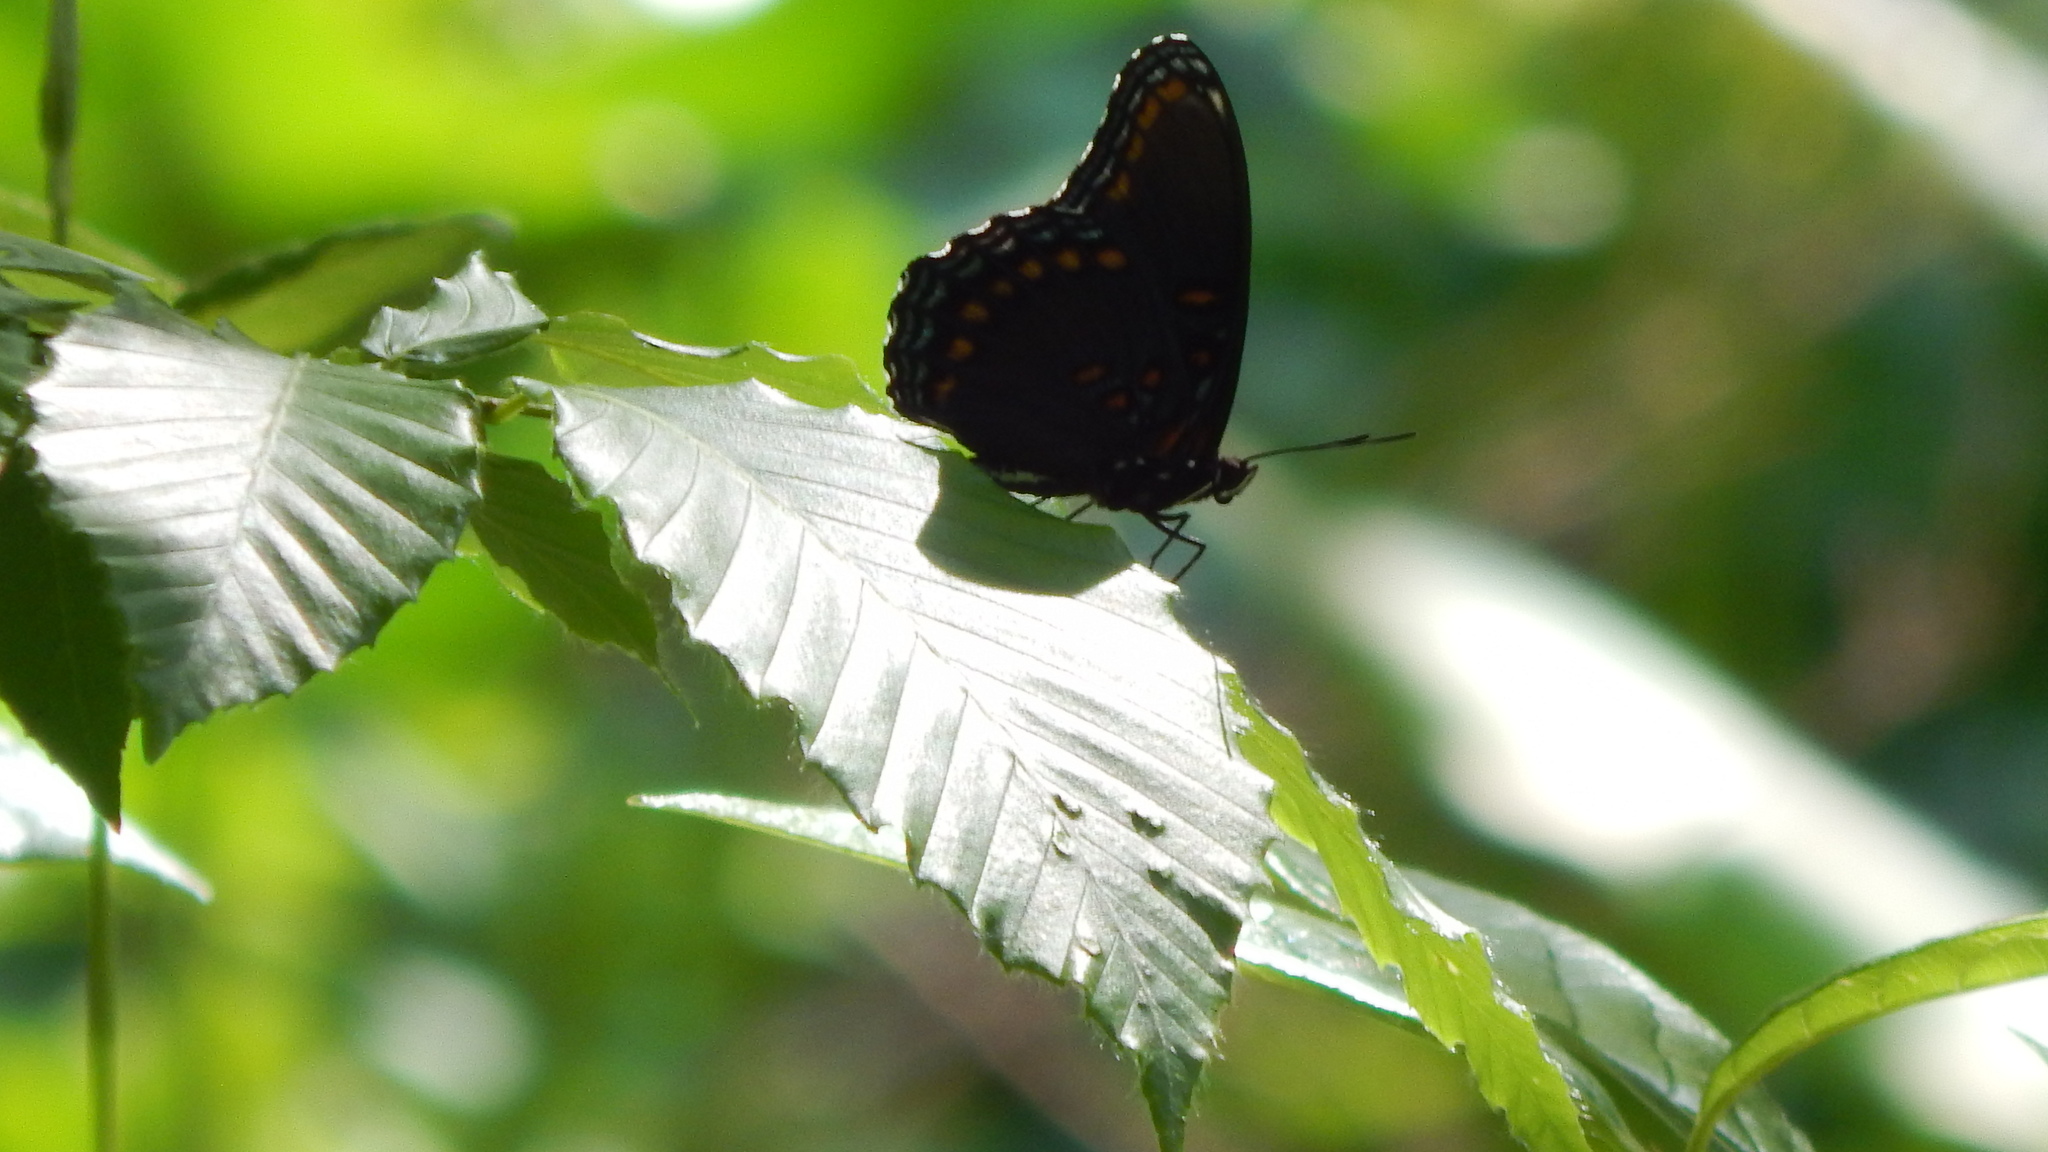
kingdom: Animalia
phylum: Arthropoda
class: Insecta
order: Lepidoptera
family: Nymphalidae
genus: Limenitis
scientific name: Limenitis arthemis
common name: Red-spotted admiral
